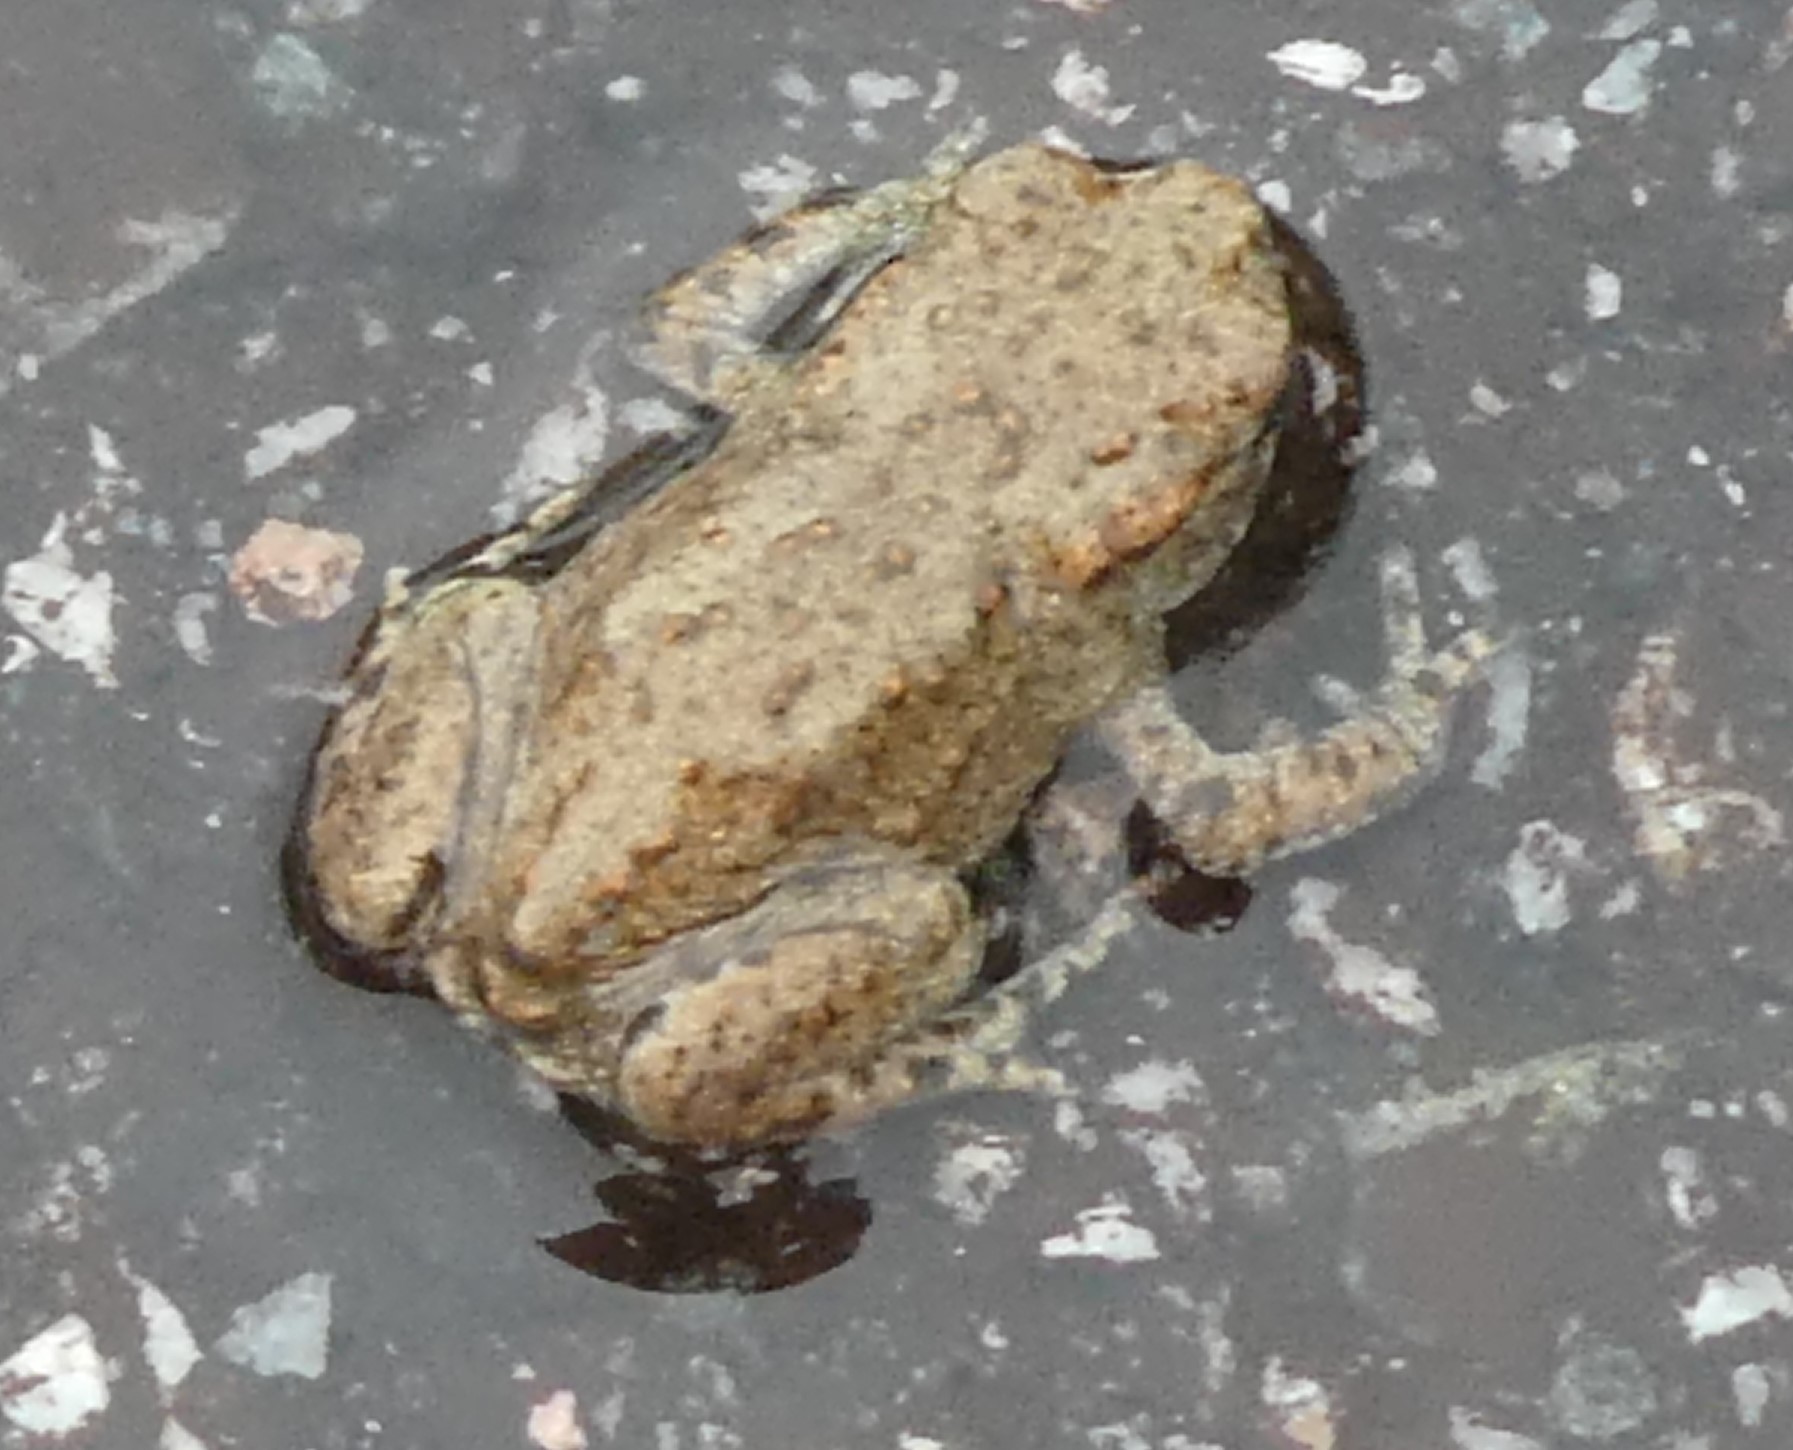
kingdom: Animalia
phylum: Chordata
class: Amphibia
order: Anura
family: Bufonidae
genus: Bufo
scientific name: Bufo bufo
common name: Common toad
